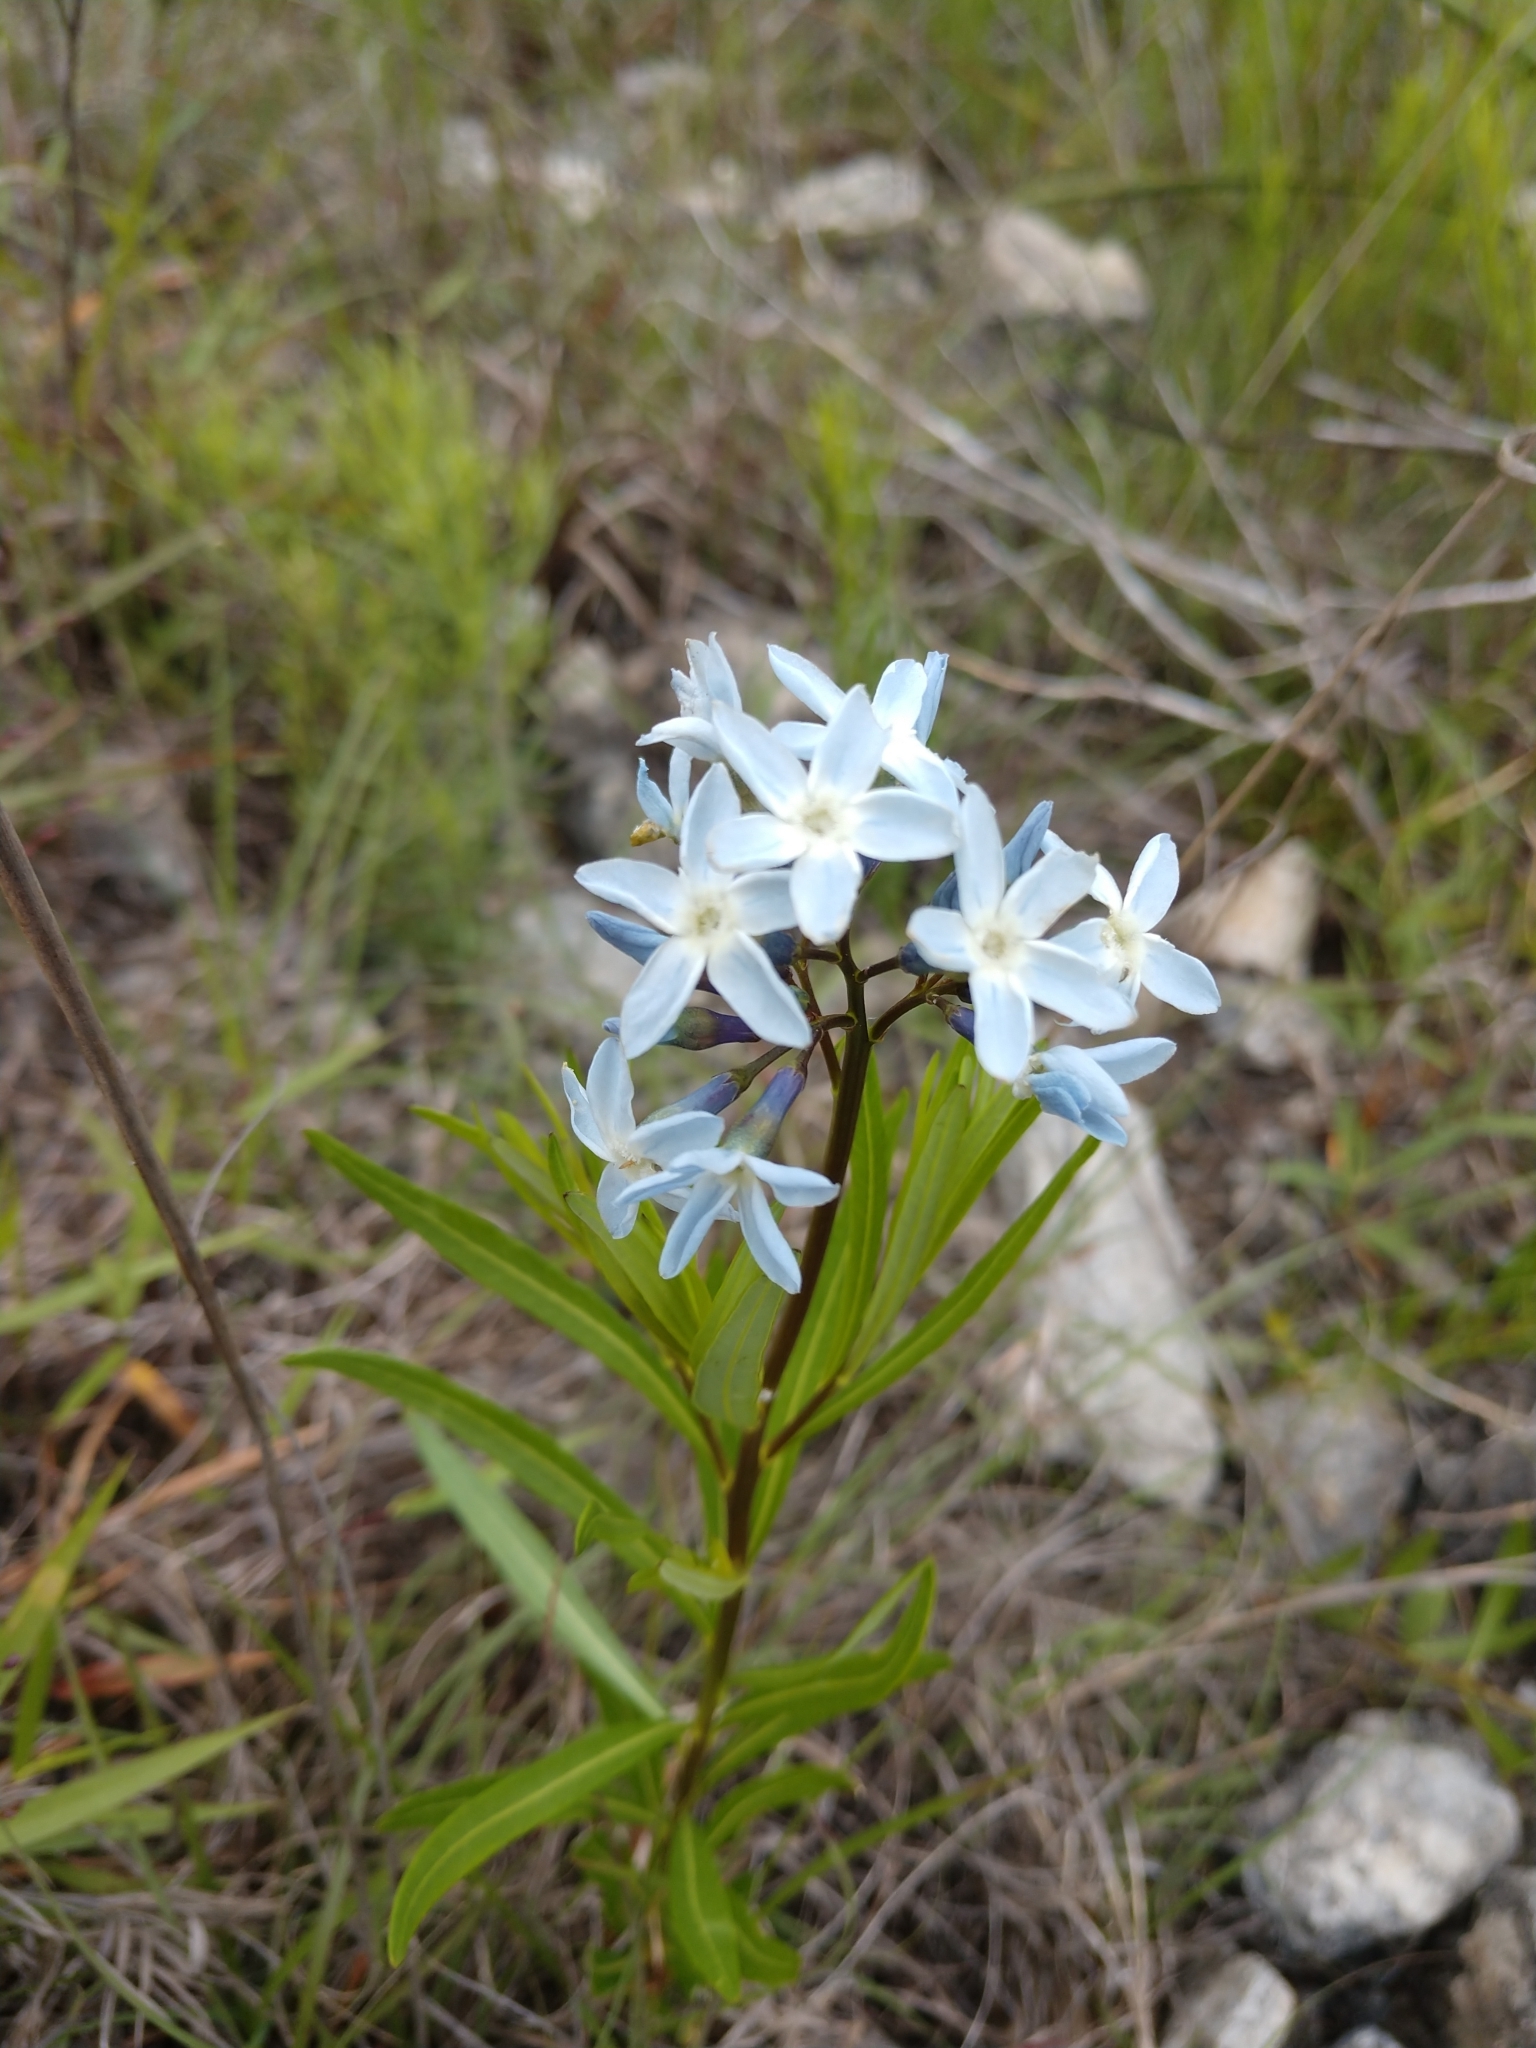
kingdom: Plantae
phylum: Tracheophyta
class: Magnoliopsida
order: Gentianales
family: Apocynaceae
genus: Amsonia
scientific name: Amsonia ciliata
